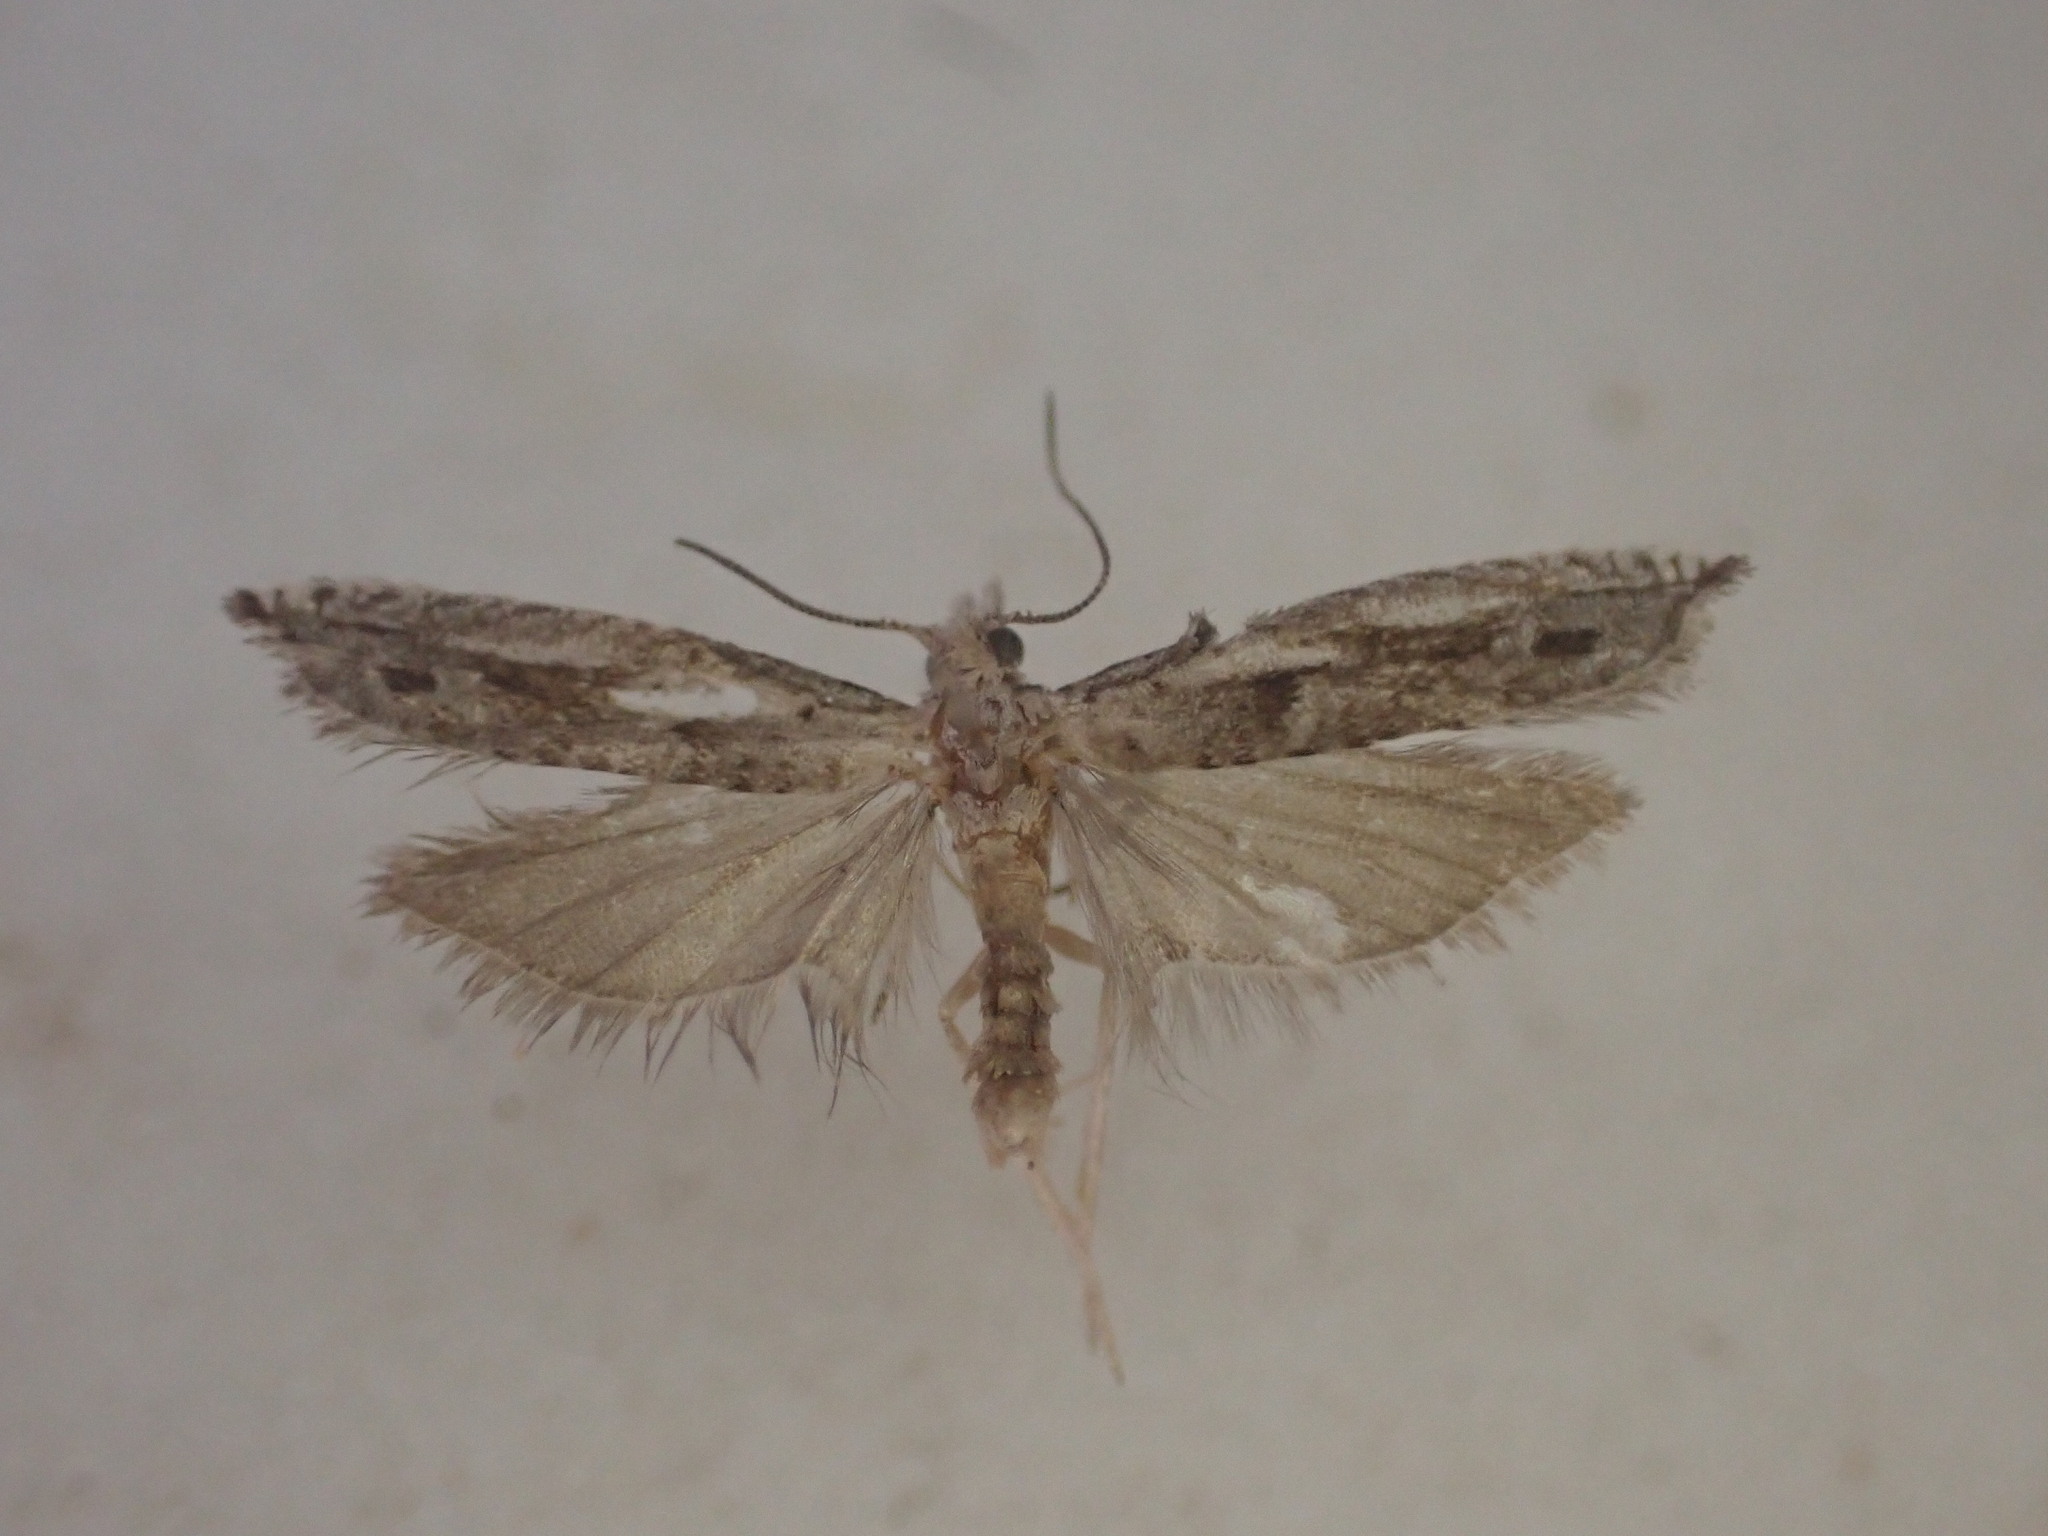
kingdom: Animalia
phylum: Arthropoda
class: Insecta
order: Lepidoptera
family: Tortricidae
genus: Holocola
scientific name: Holocola zopherana
